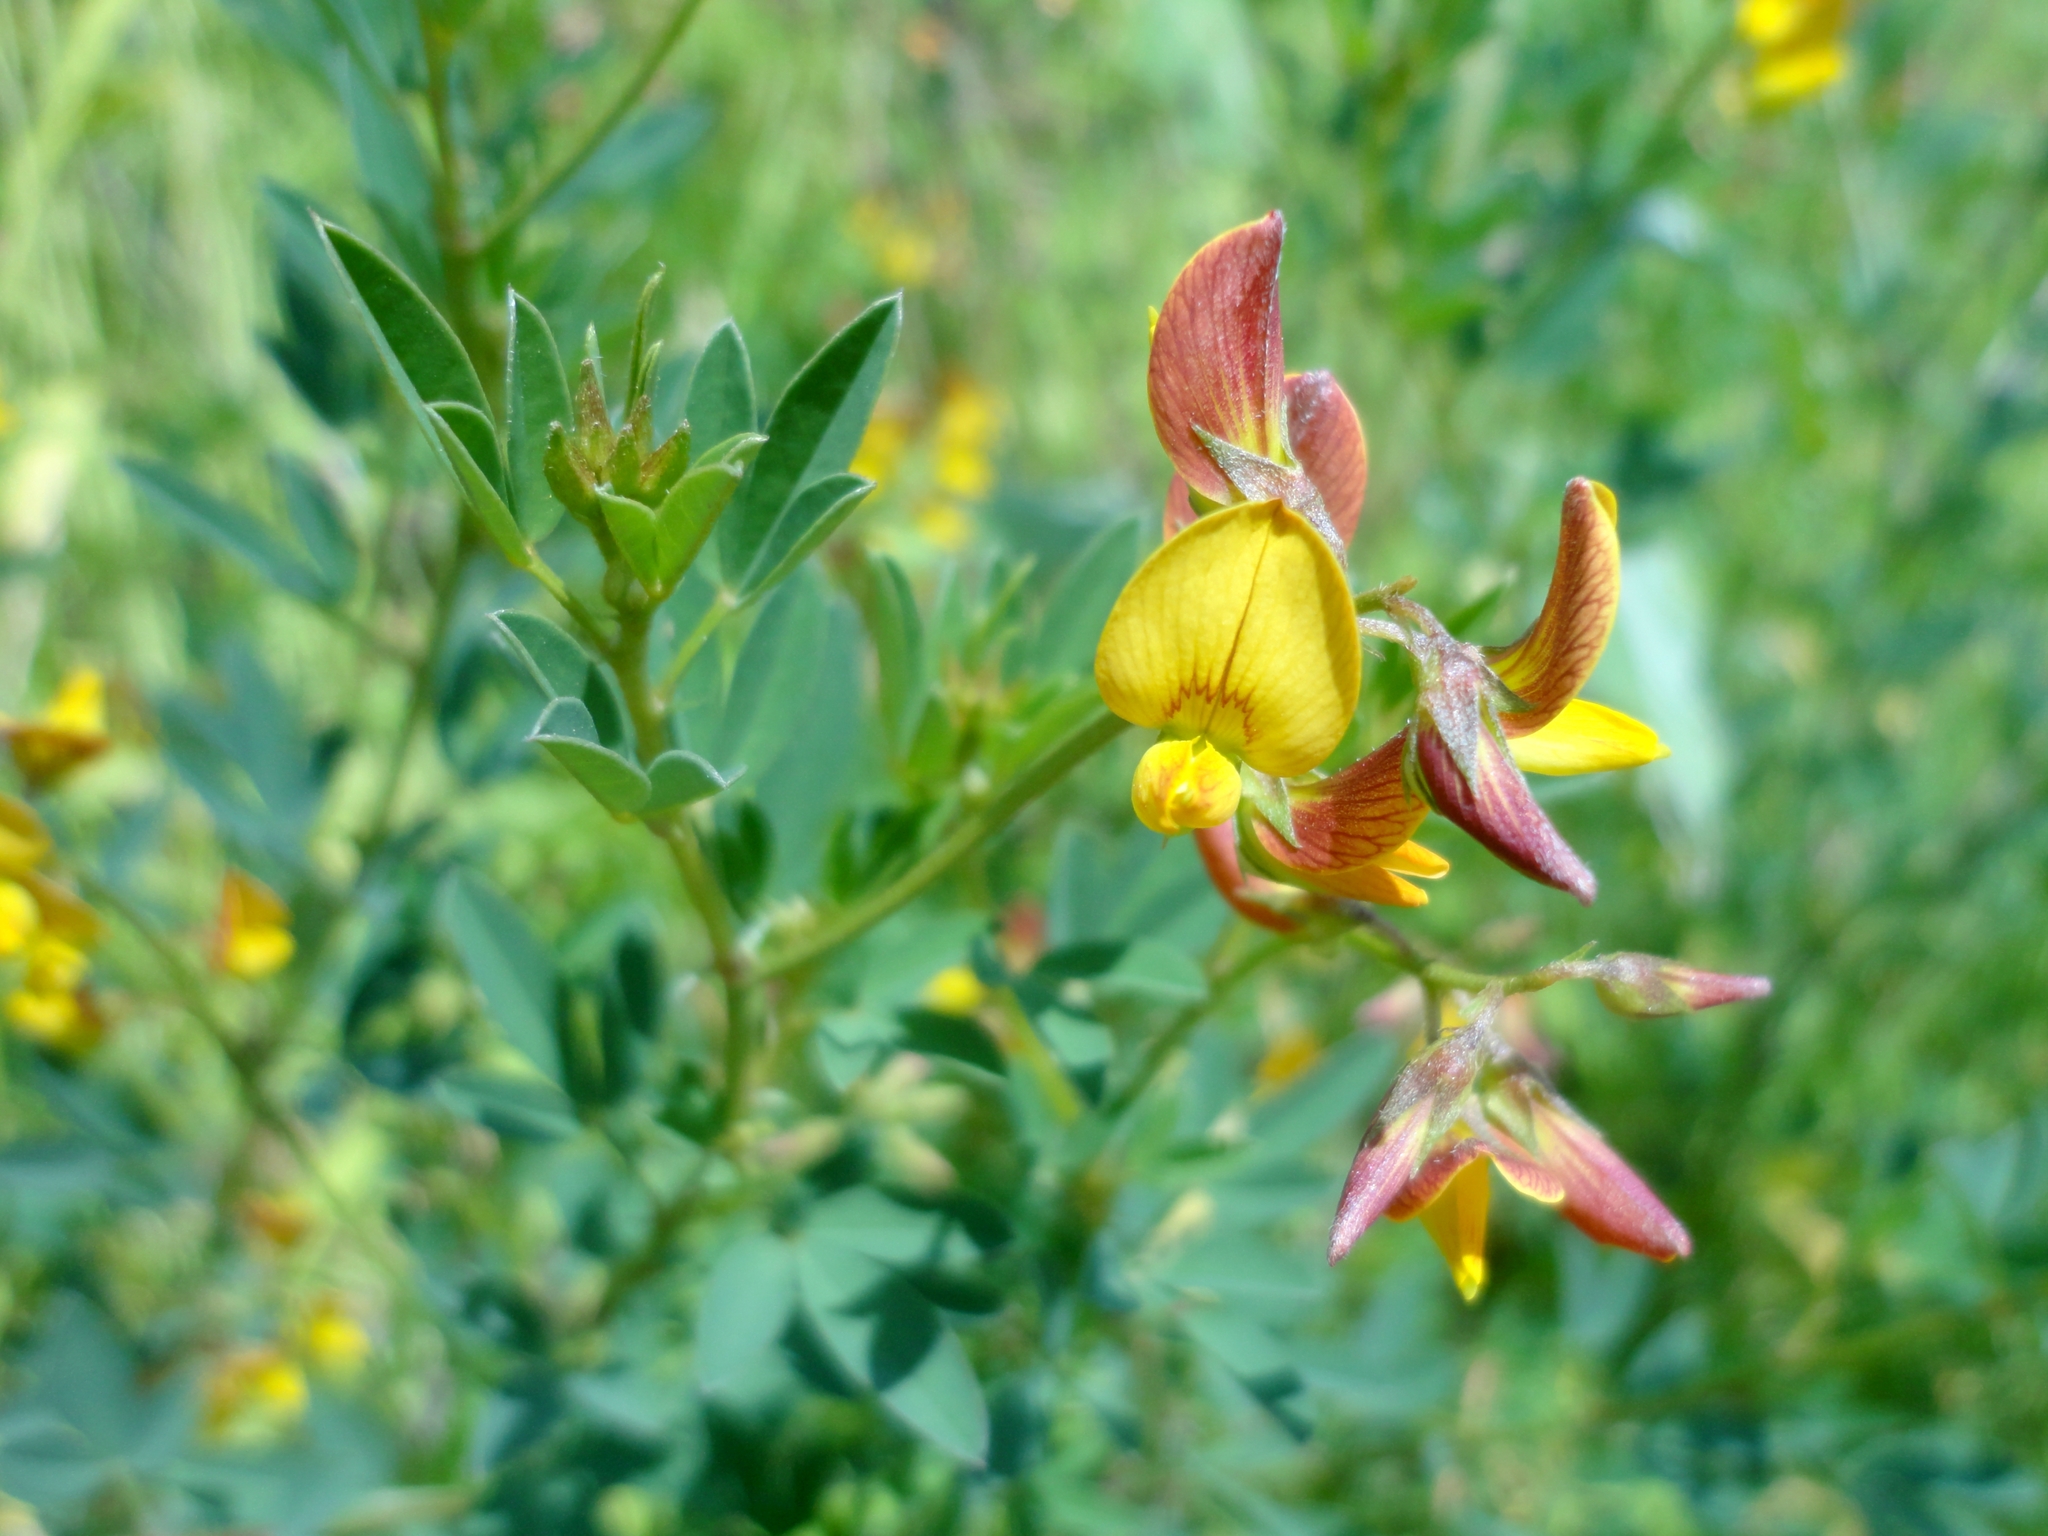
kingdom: Plantae
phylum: Tracheophyta
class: Magnoliopsida
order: Fabales
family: Fabaceae
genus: Crotalaria
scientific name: Crotalaria pumila
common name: Low rattlebox
